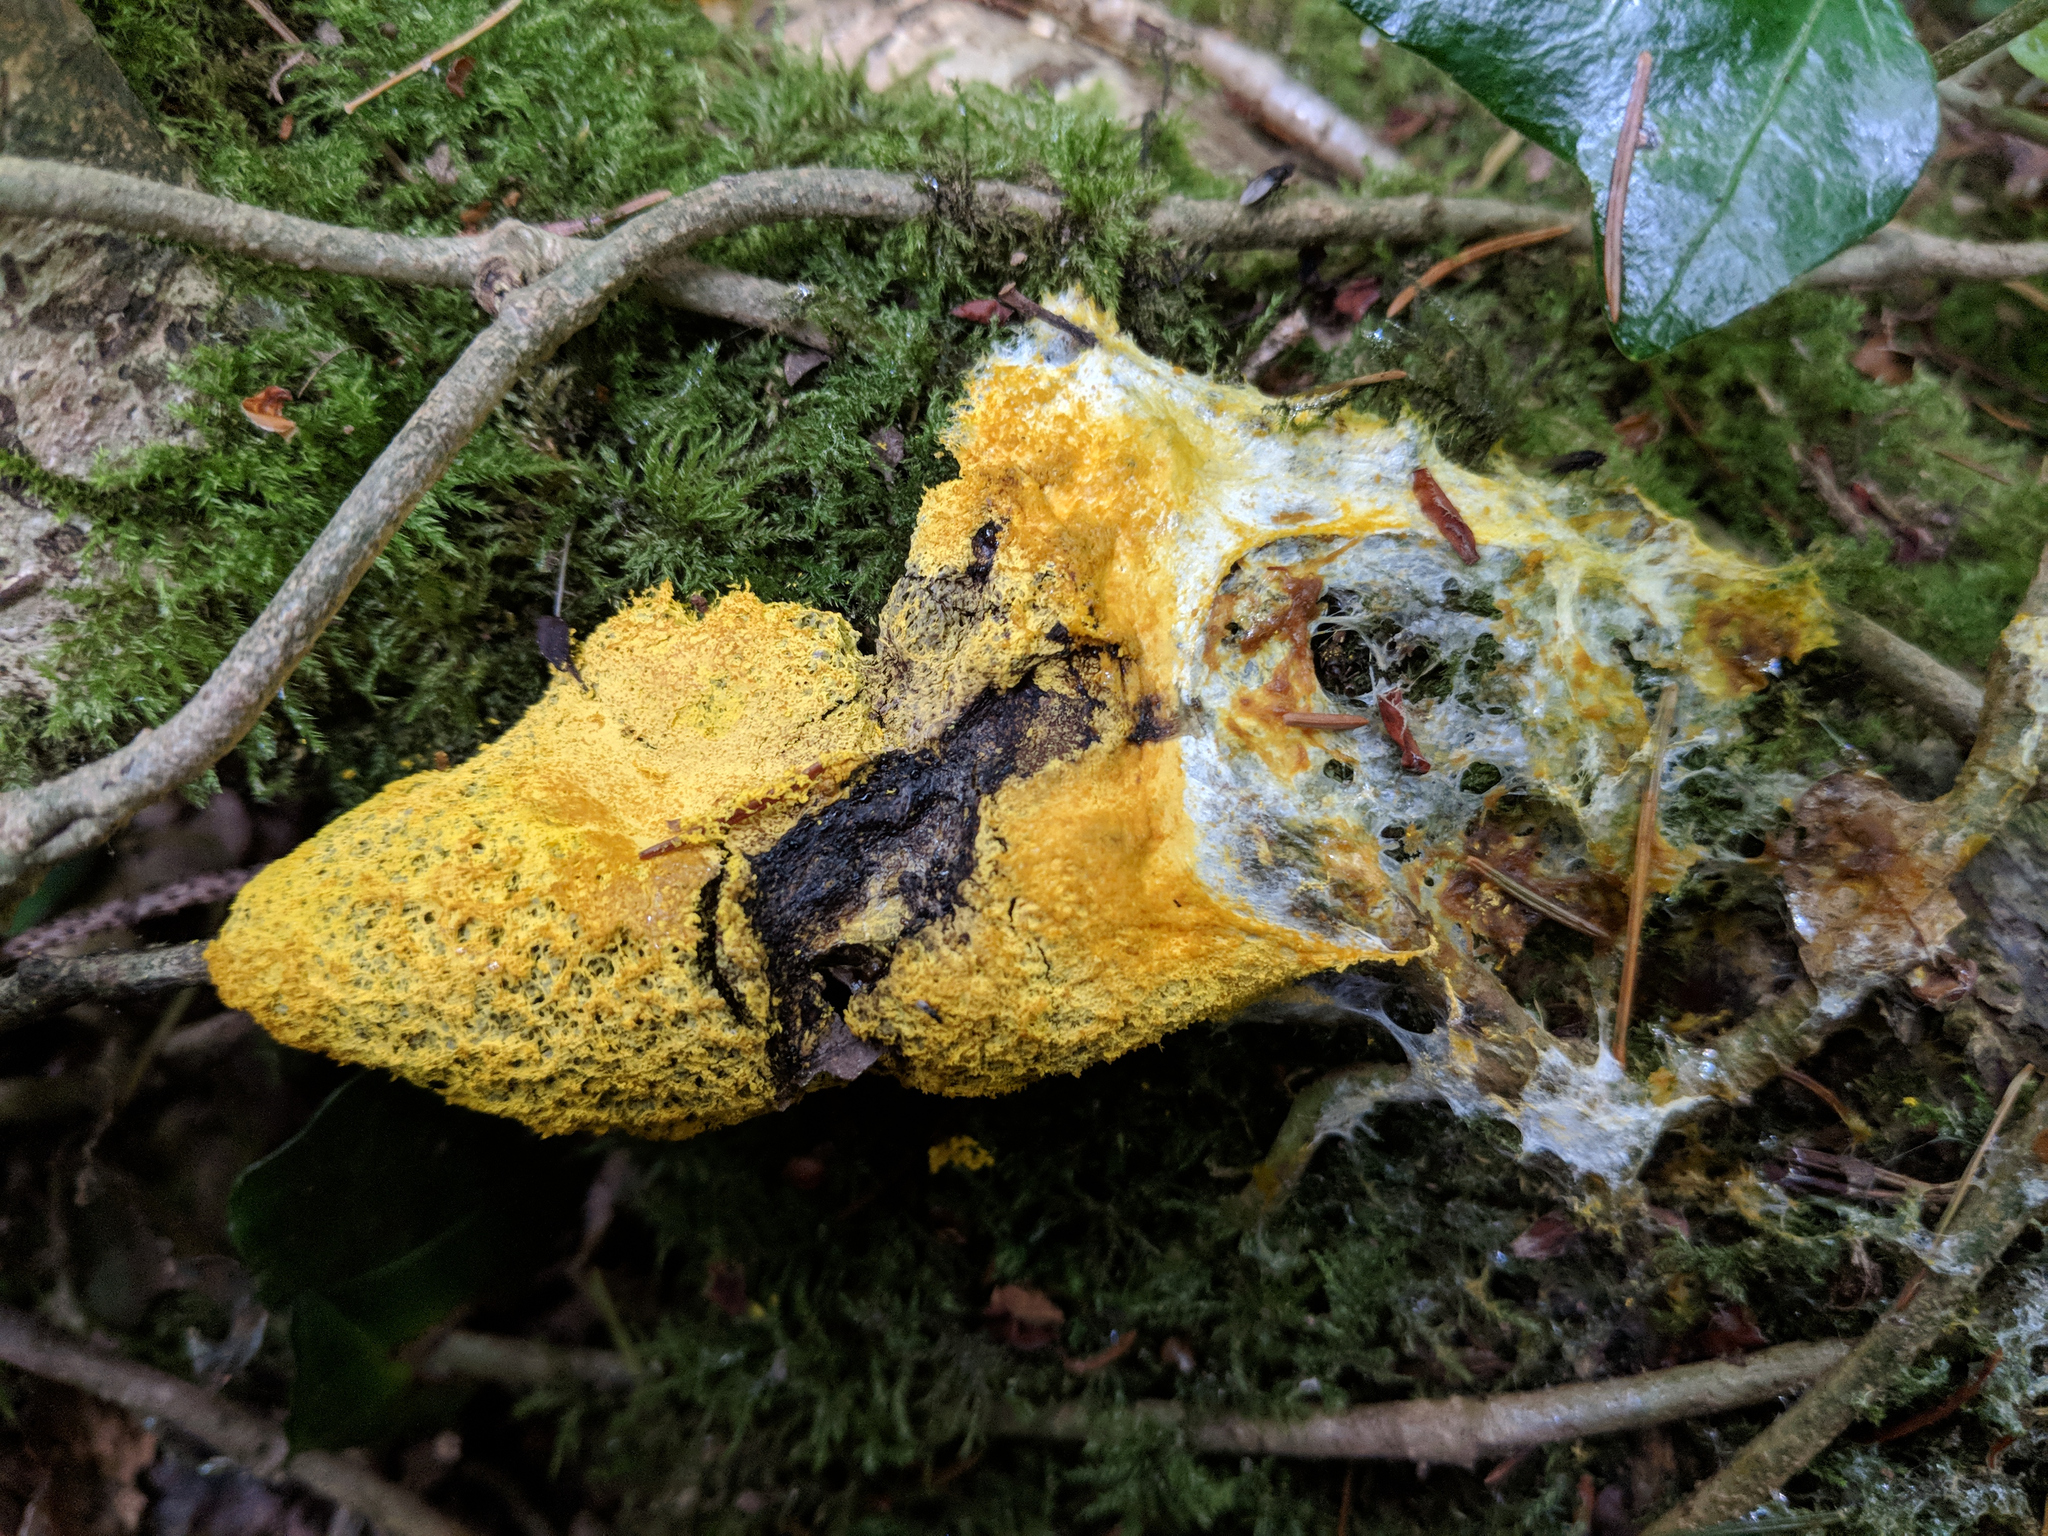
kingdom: Protozoa
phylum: Mycetozoa
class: Myxomycetes
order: Physarales
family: Physaraceae
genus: Fuligo
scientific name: Fuligo septica
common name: Dog vomit slime mold
